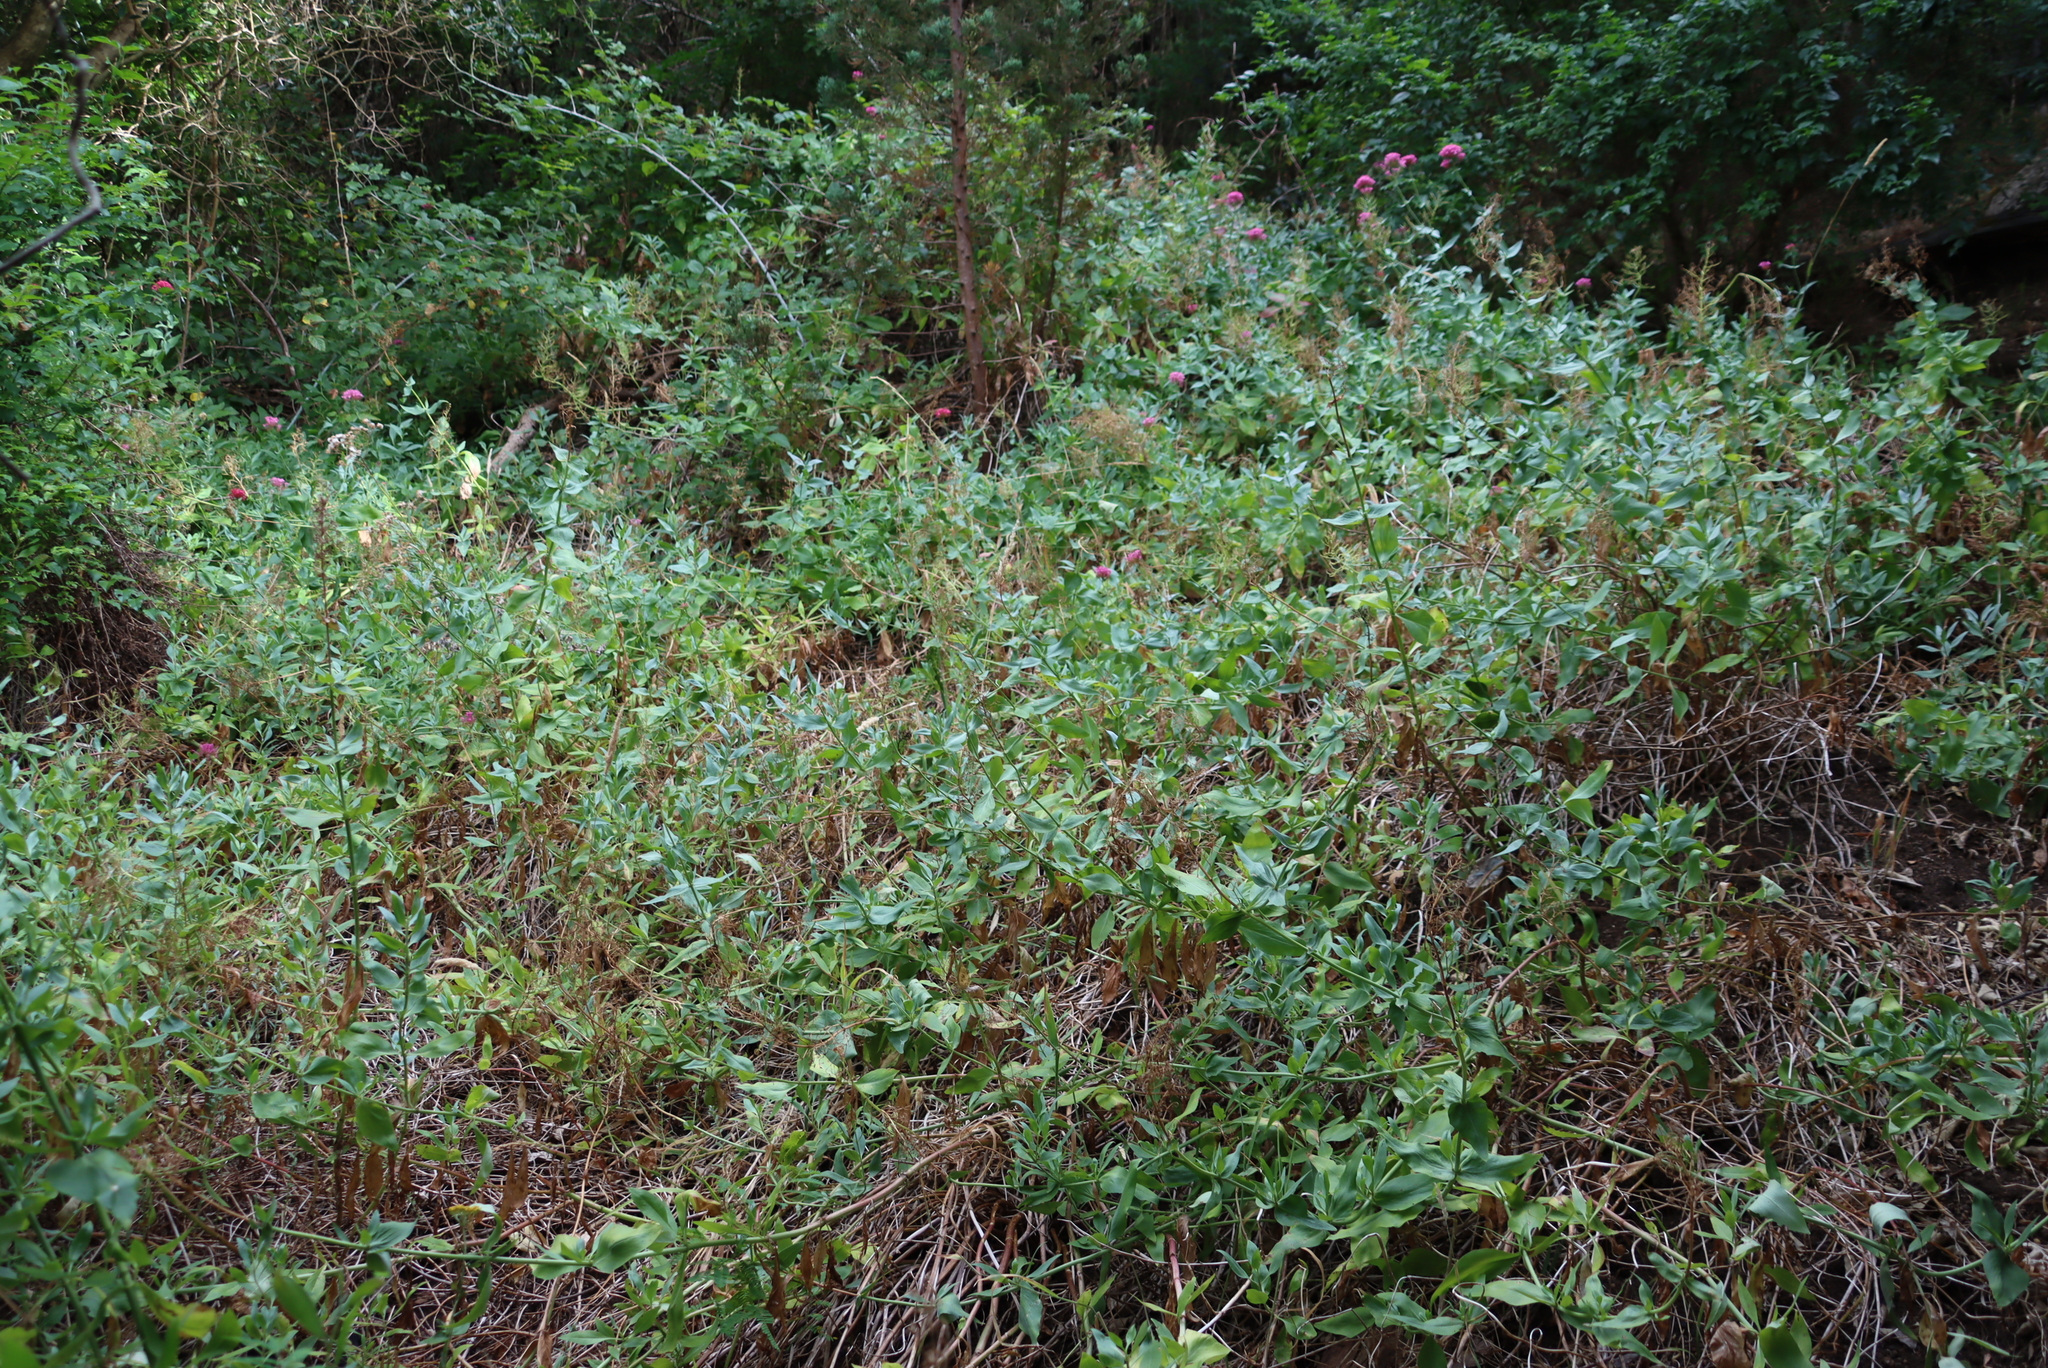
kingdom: Plantae
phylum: Tracheophyta
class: Magnoliopsida
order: Dipsacales
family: Caprifoliaceae
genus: Centranthus
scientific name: Centranthus ruber
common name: Red valerian
